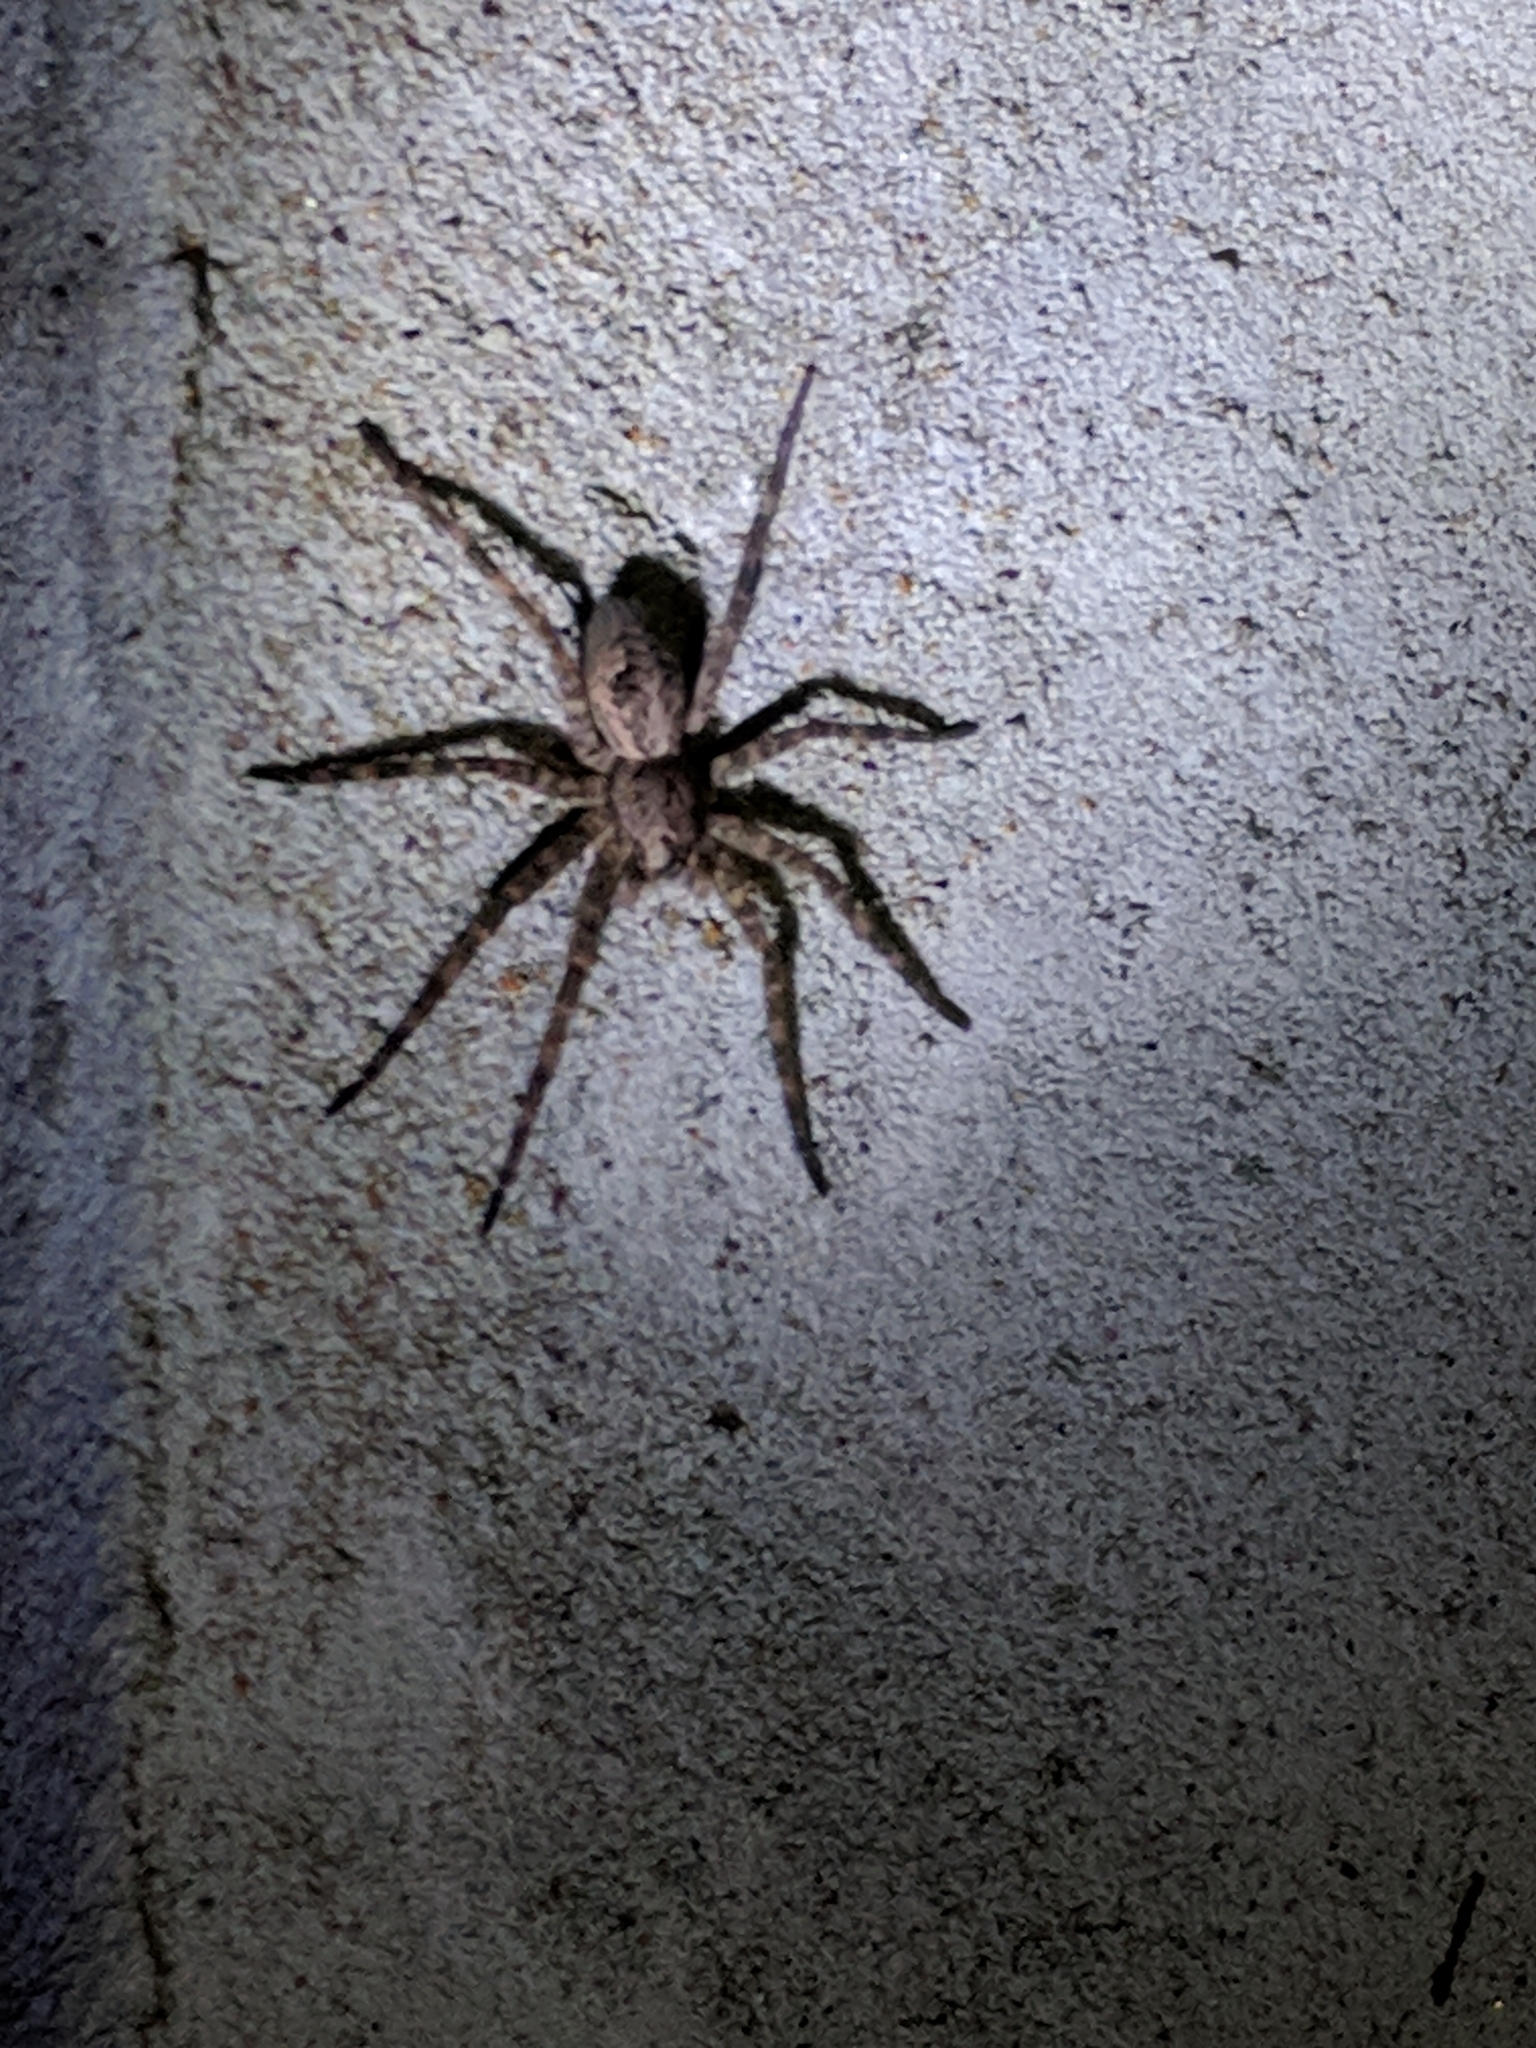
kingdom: Animalia
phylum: Arthropoda
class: Arachnida
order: Araneae
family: Pisauridae
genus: Dolomedes
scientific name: Dolomedes tenebrosus
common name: Dark fishing spider
